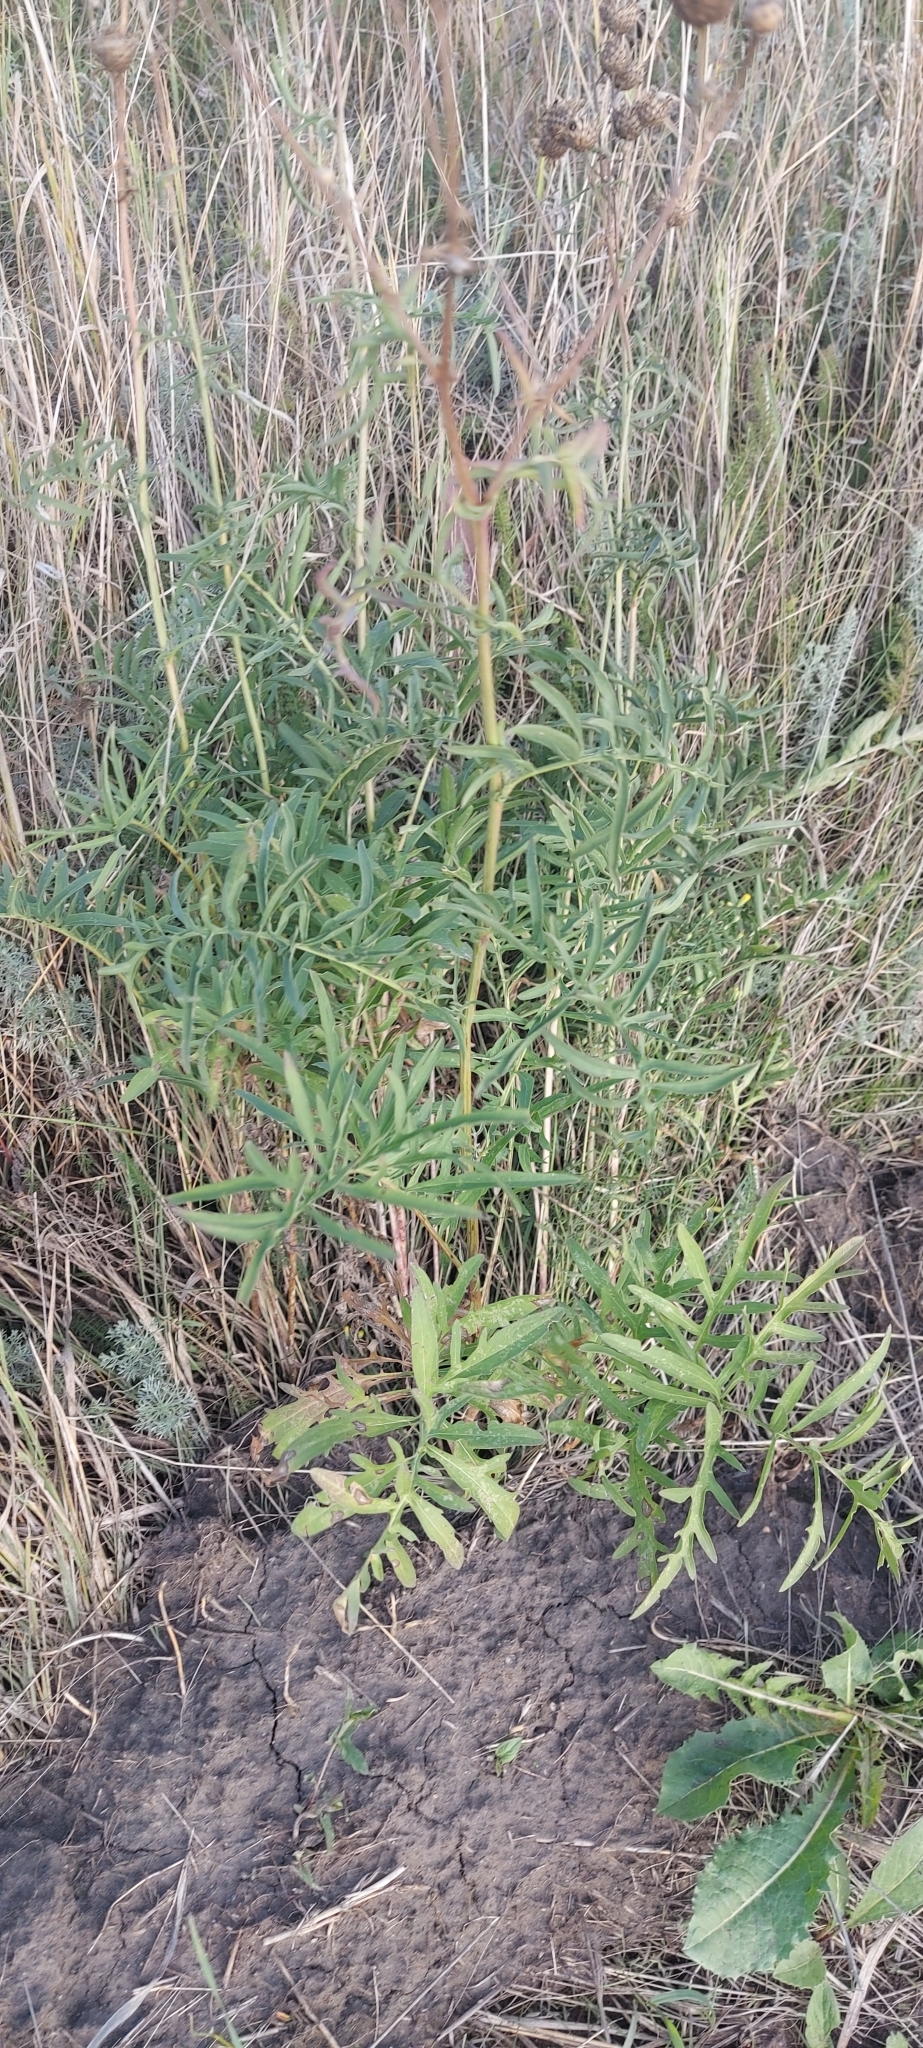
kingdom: Plantae
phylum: Tracheophyta
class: Magnoliopsida
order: Asterales
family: Asteraceae
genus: Centaurea
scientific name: Centaurea scabiosa
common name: Greater knapweed
